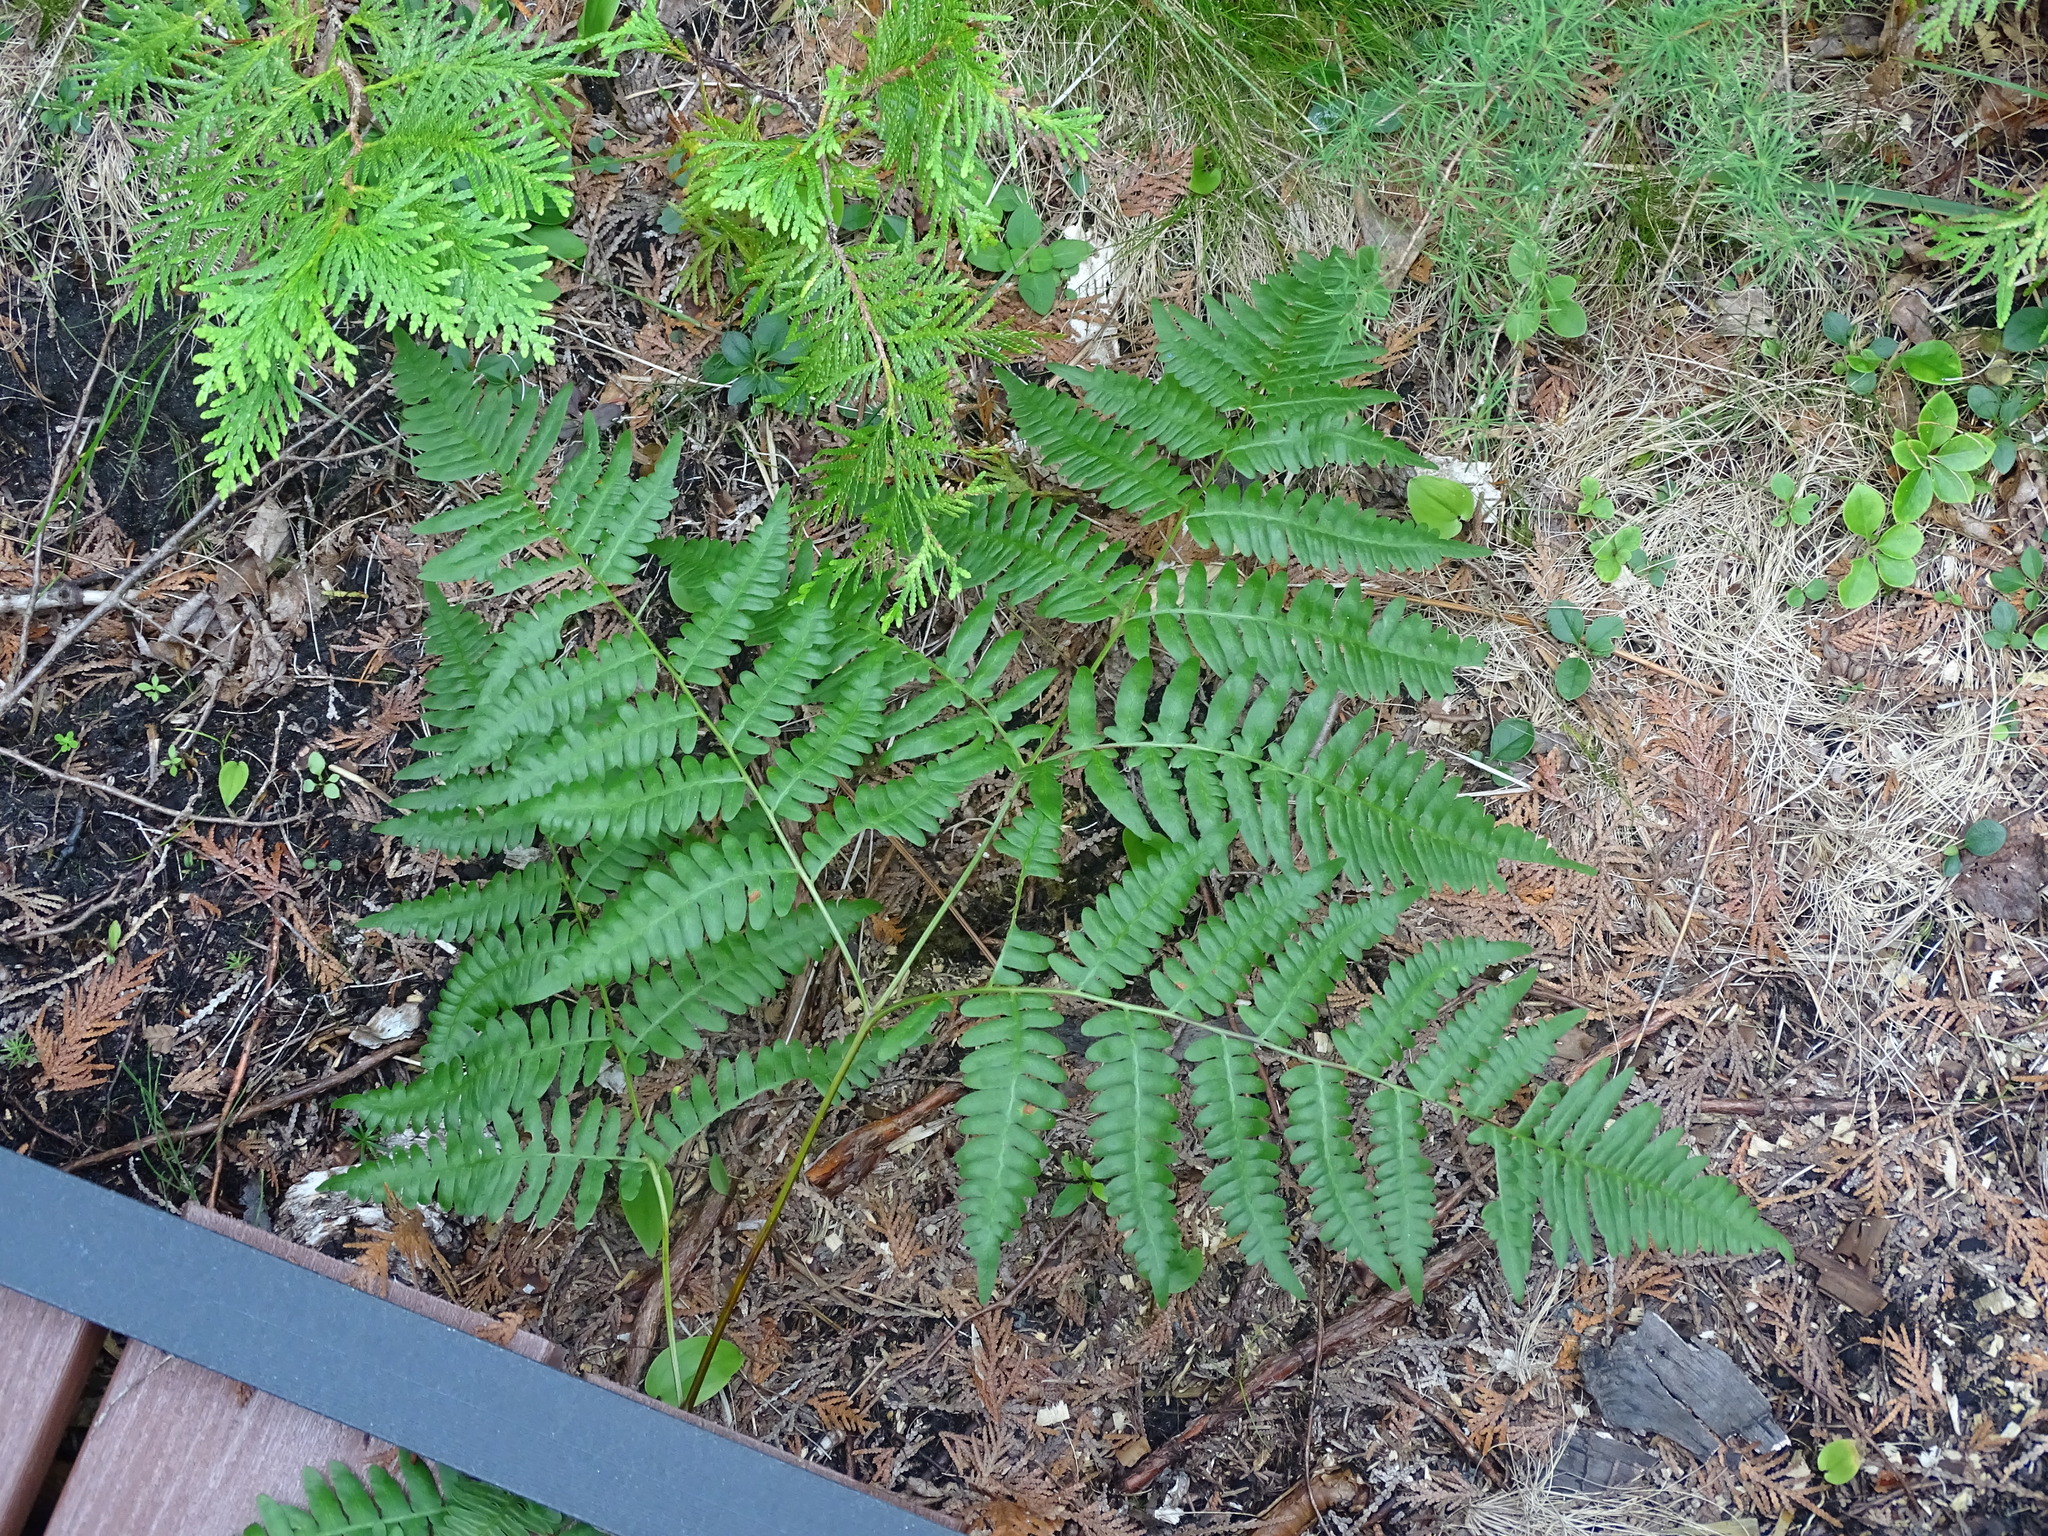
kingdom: Plantae
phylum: Tracheophyta
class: Polypodiopsida
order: Polypodiales
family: Dennstaedtiaceae
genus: Pteridium
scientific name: Pteridium aquilinum
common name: Bracken
